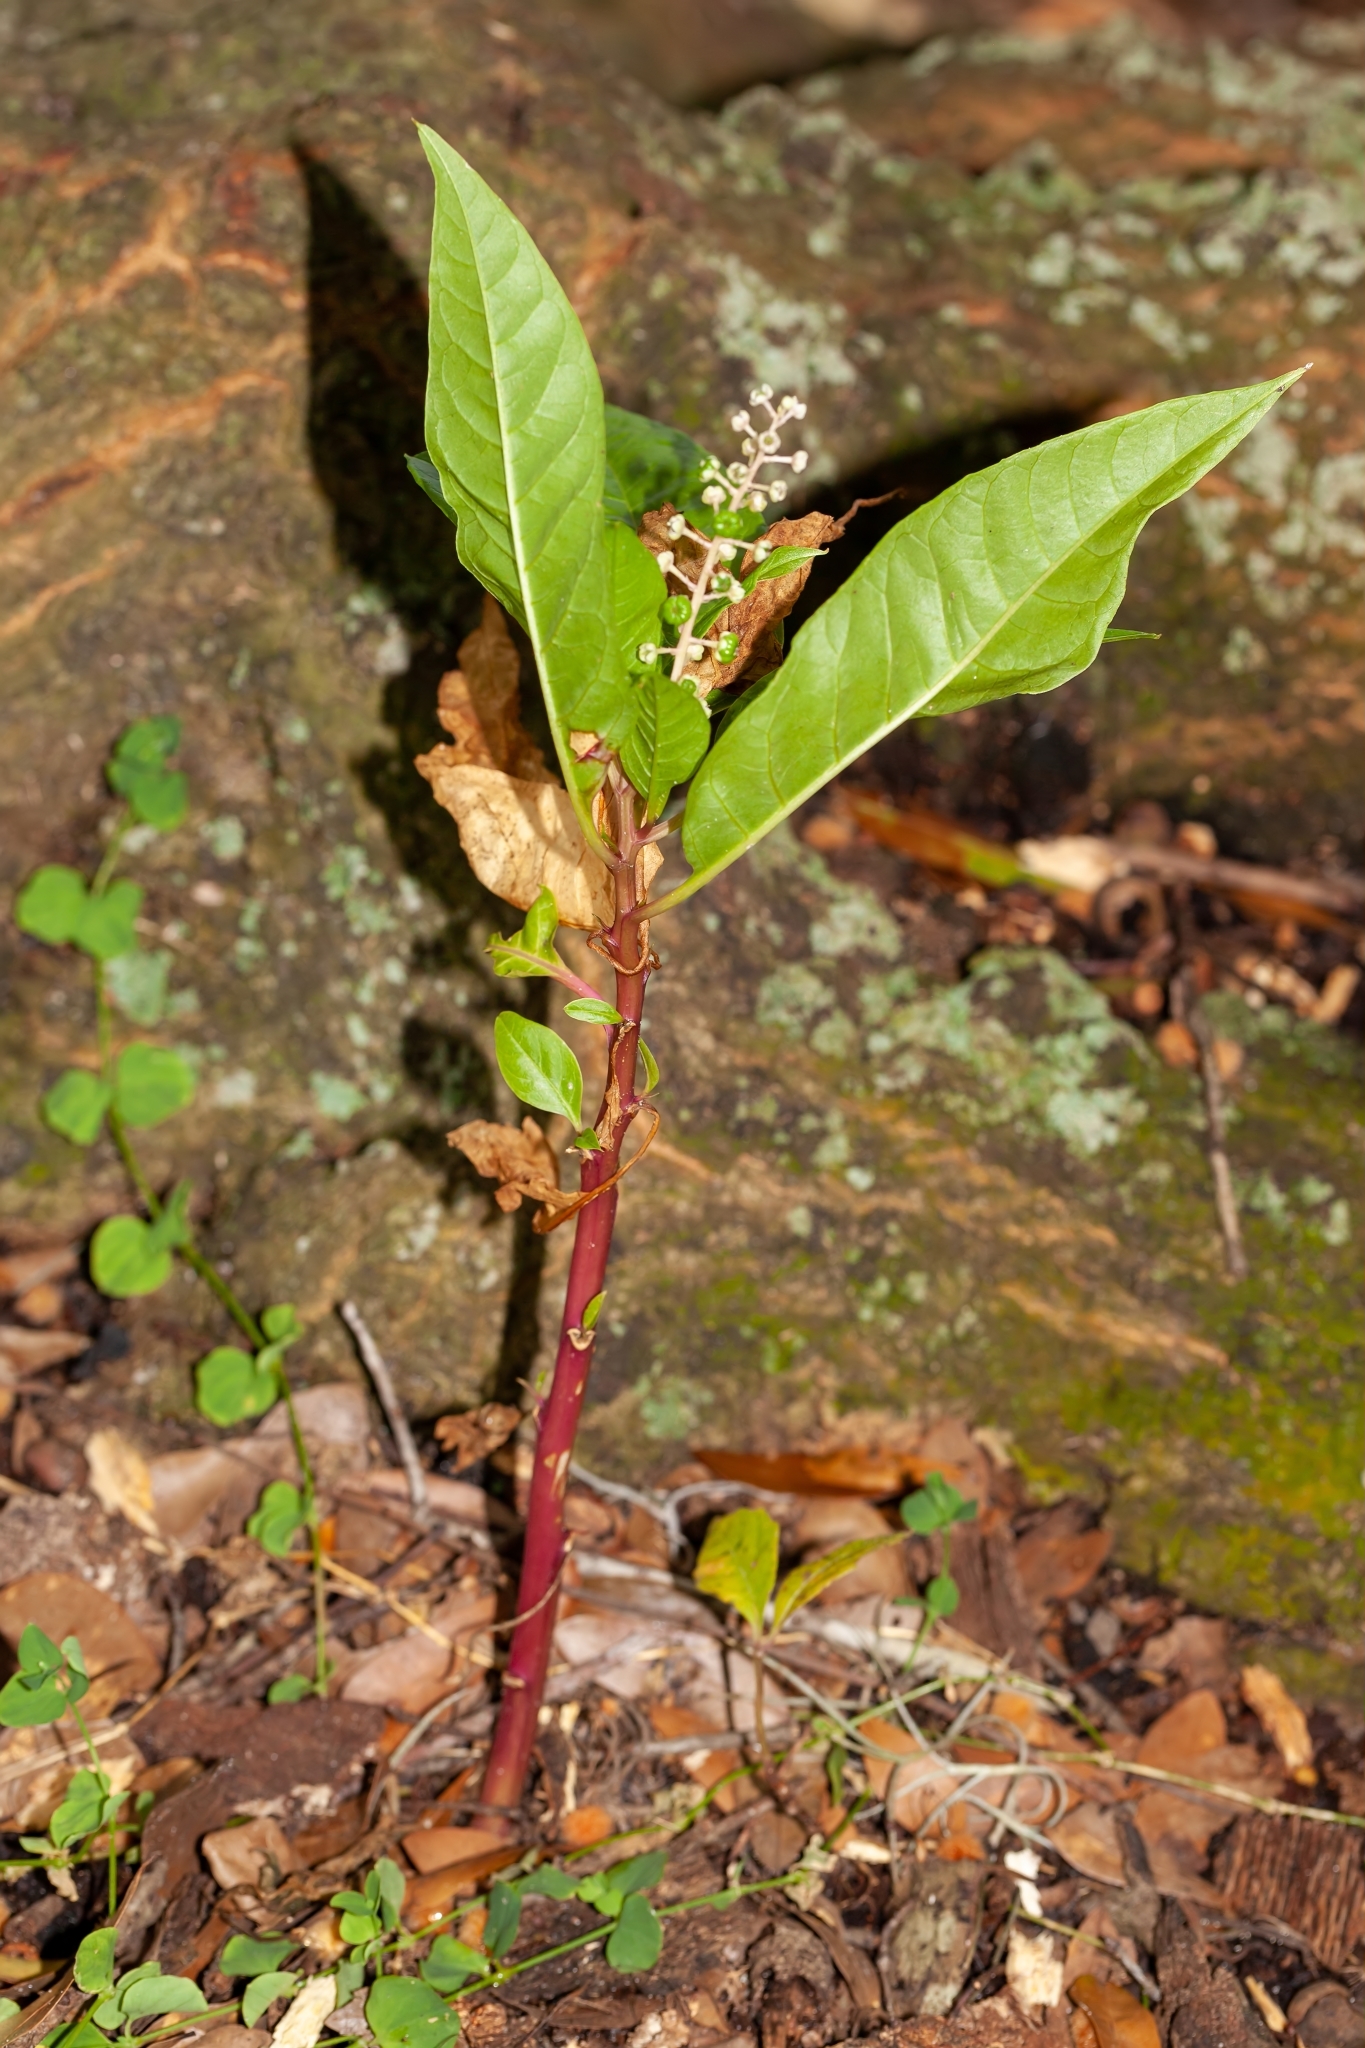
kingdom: Plantae
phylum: Tracheophyta
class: Magnoliopsida
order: Caryophyllales
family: Phytolaccaceae
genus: Phytolacca
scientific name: Phytolacca americana
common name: American pokeweed
